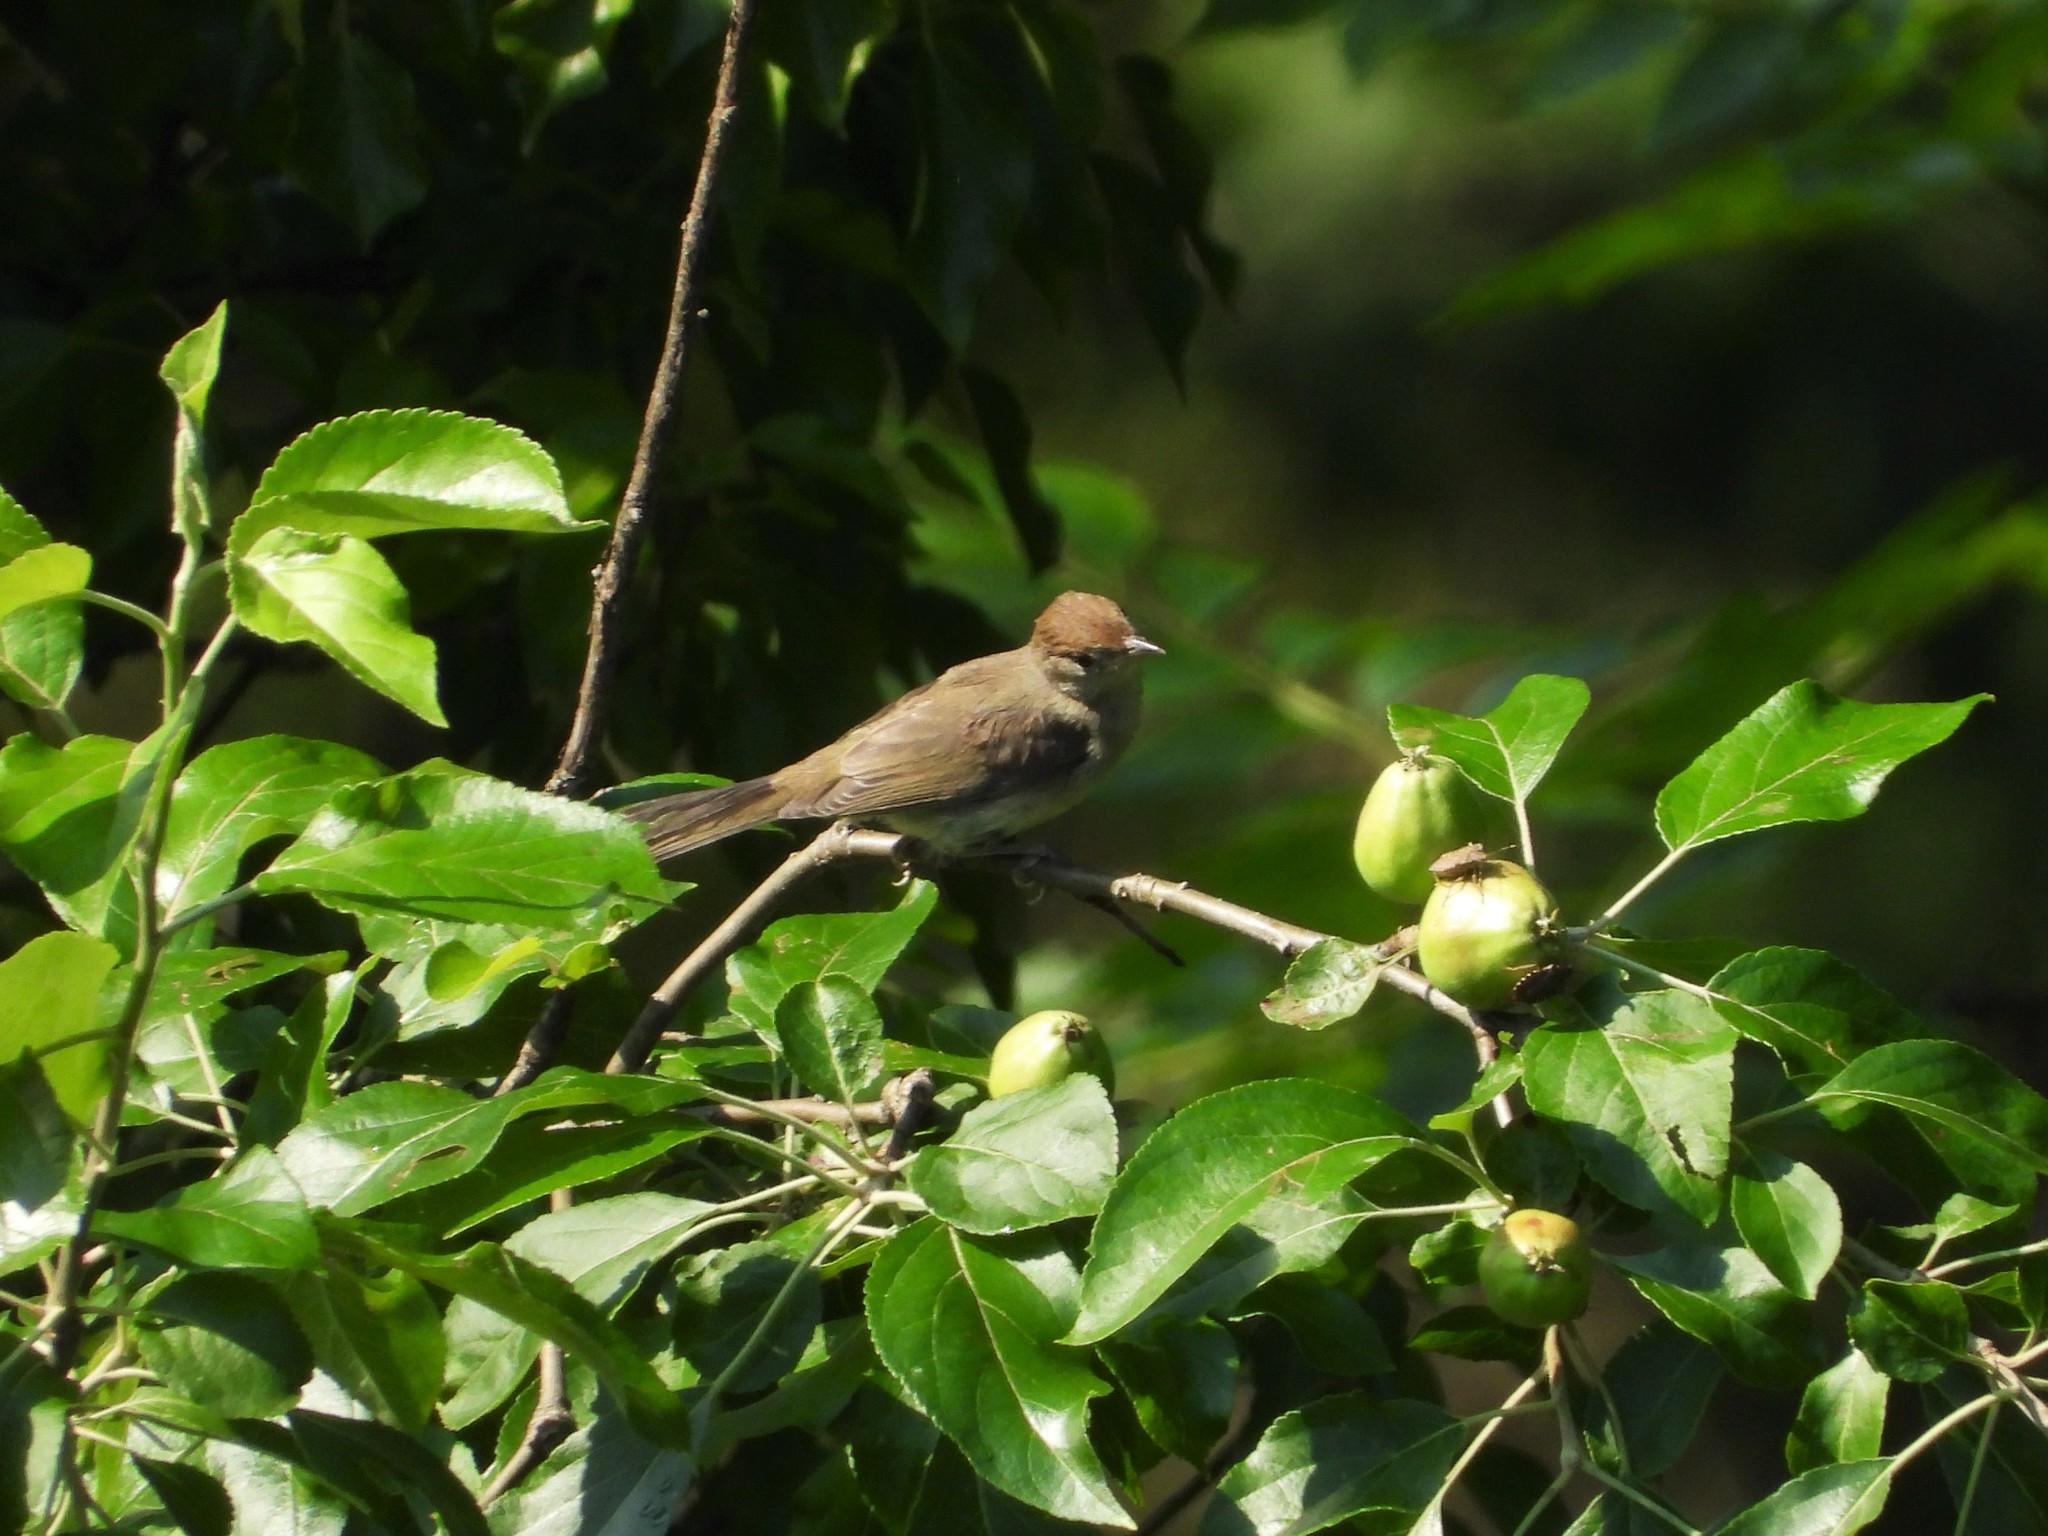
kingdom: Animalia
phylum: Chordata
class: Aves
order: Passeriformes
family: Sylviidae
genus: Sylvia
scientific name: Sylvia atricapilla
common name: Eurasian blackcap
